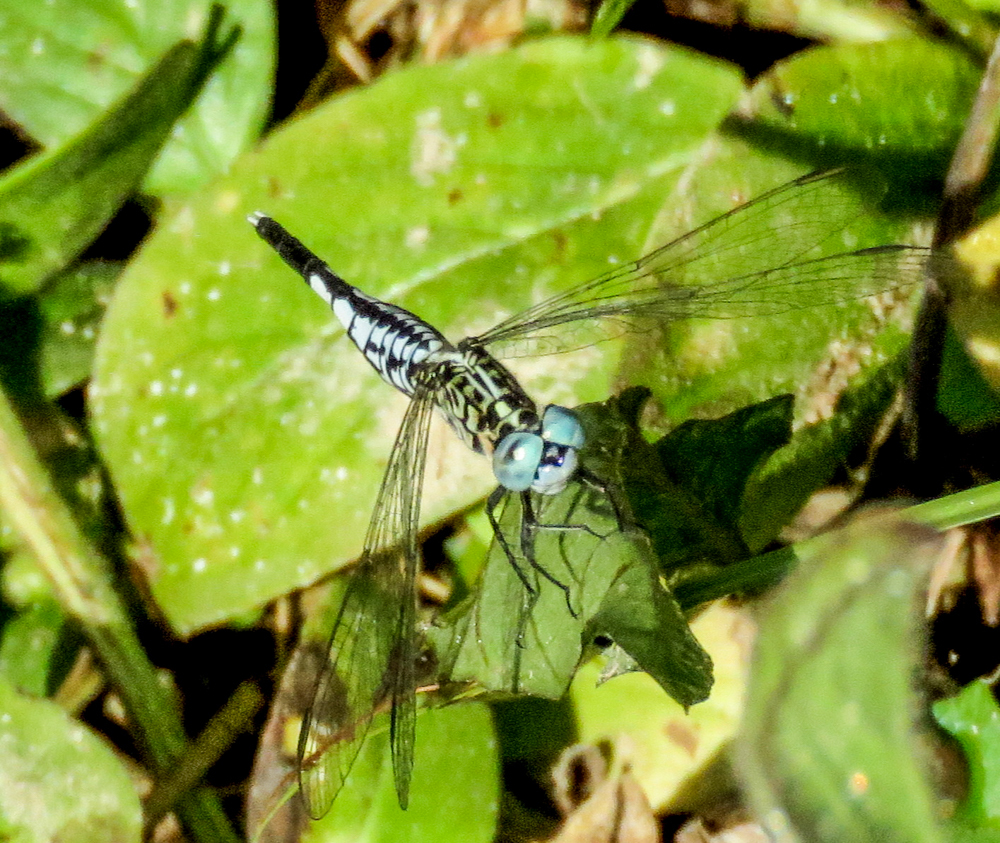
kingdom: Animalia
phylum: Arthropoda
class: Insecta
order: Odonata
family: Libellulidae
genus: Acisoma
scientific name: Acisoma panorpoides
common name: Asian pintail
